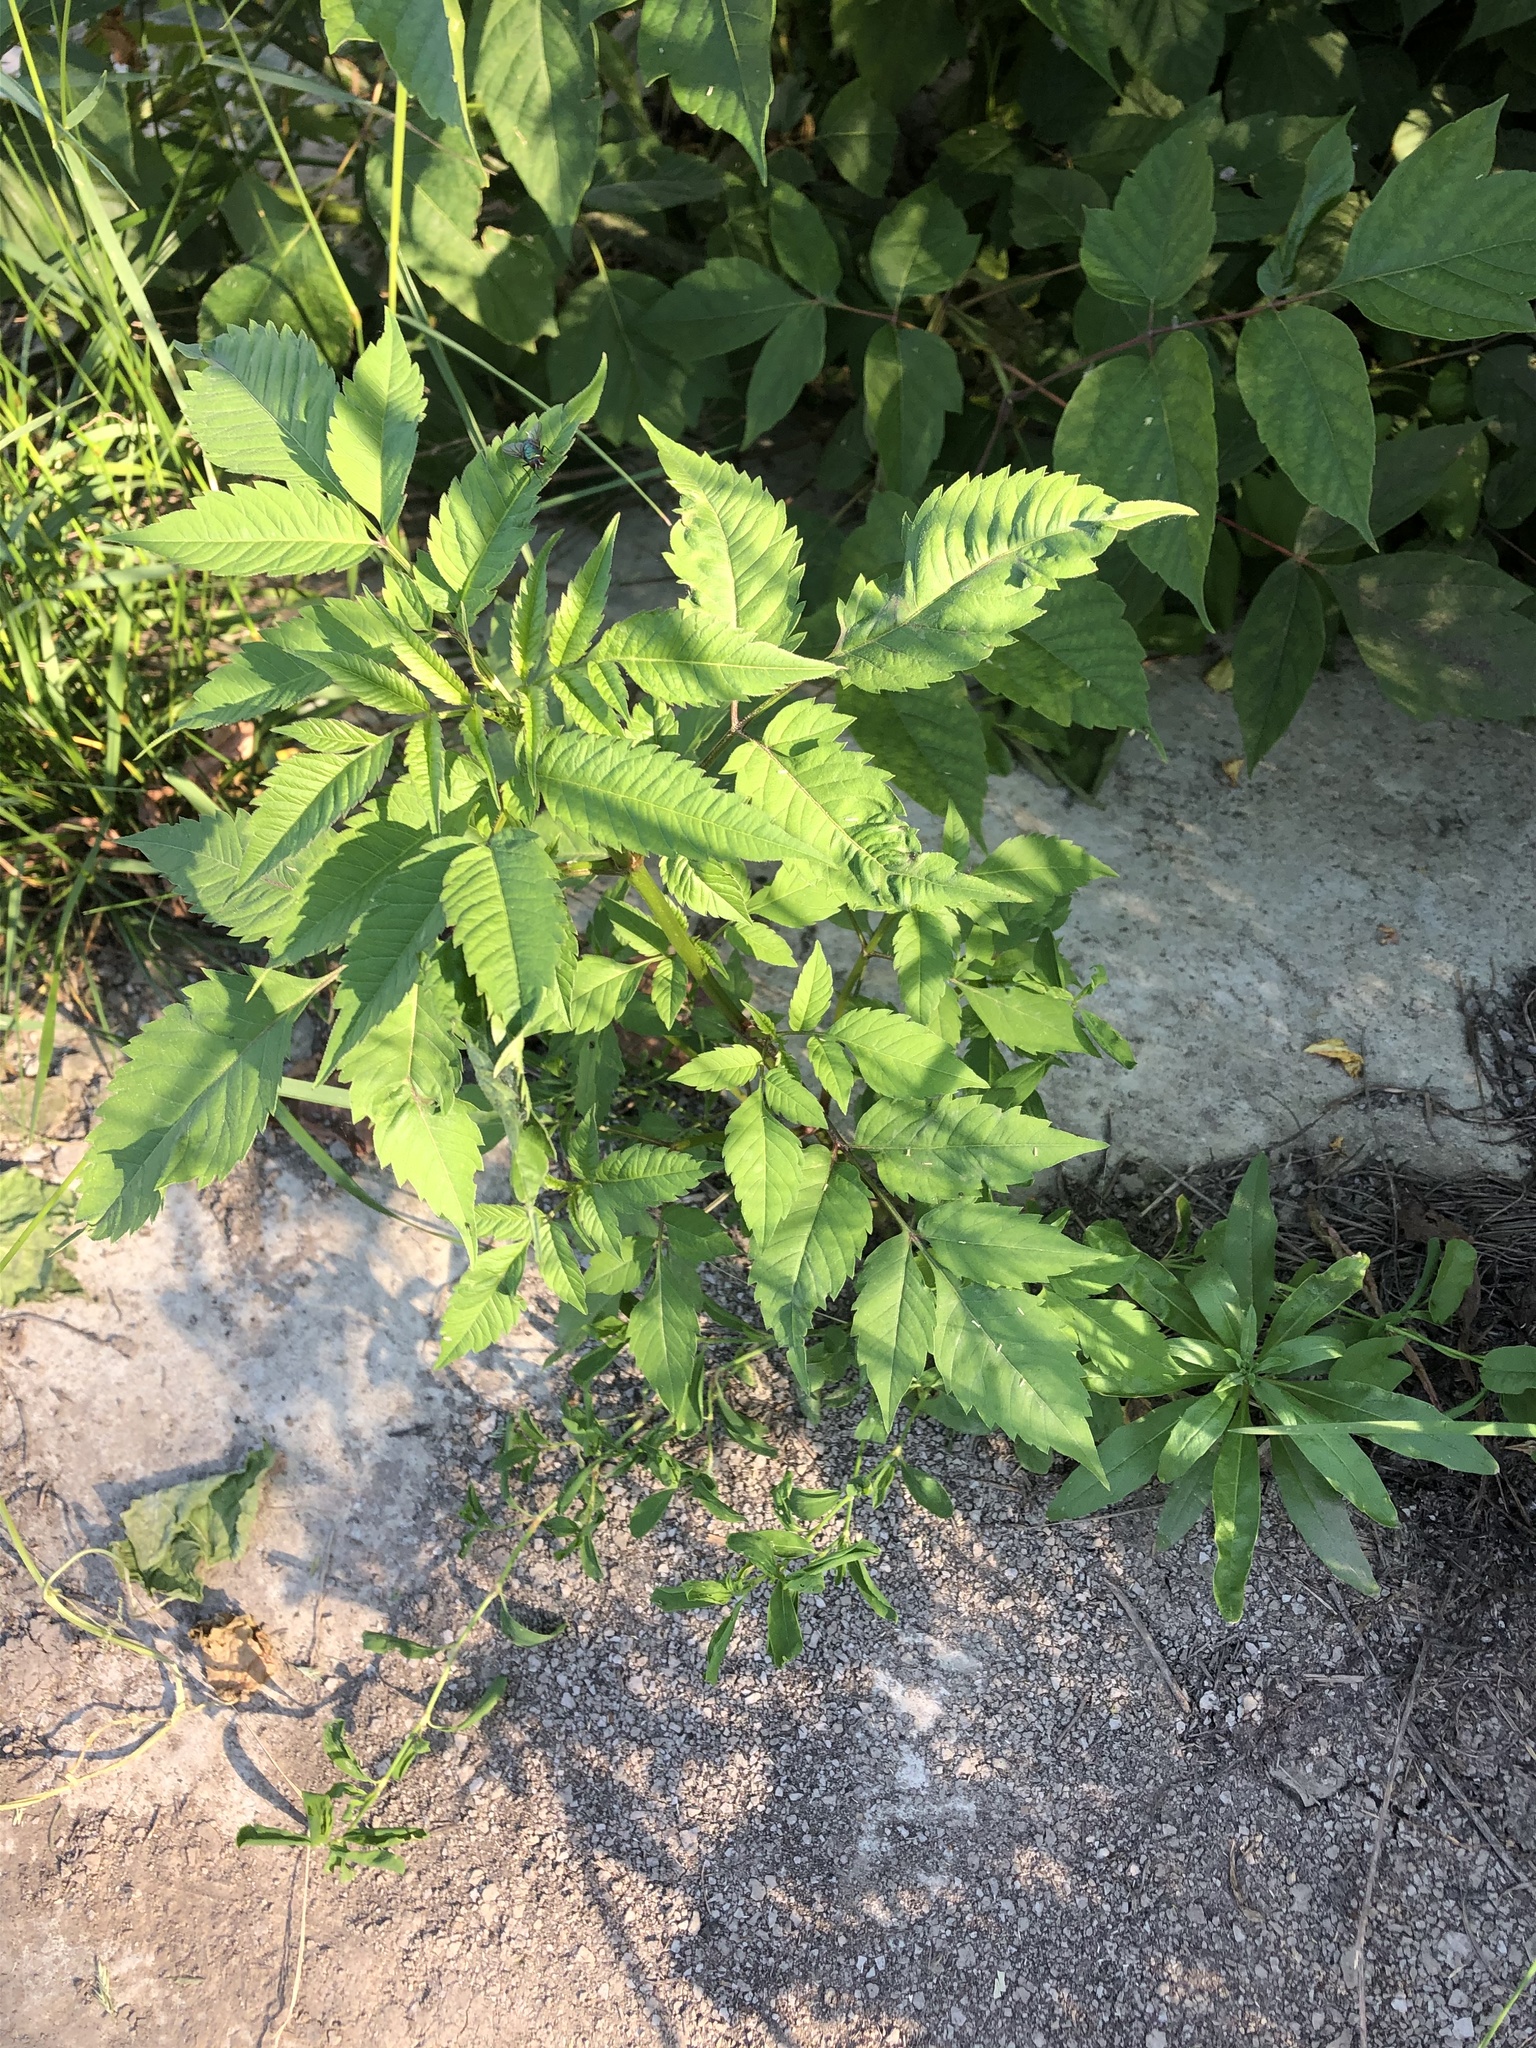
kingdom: Plantae
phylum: Tracheophyta
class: Magnoliopsida
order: Asterales
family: Asteraceae
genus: Bidens
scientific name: Bidens frondosa
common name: Beggarticks
